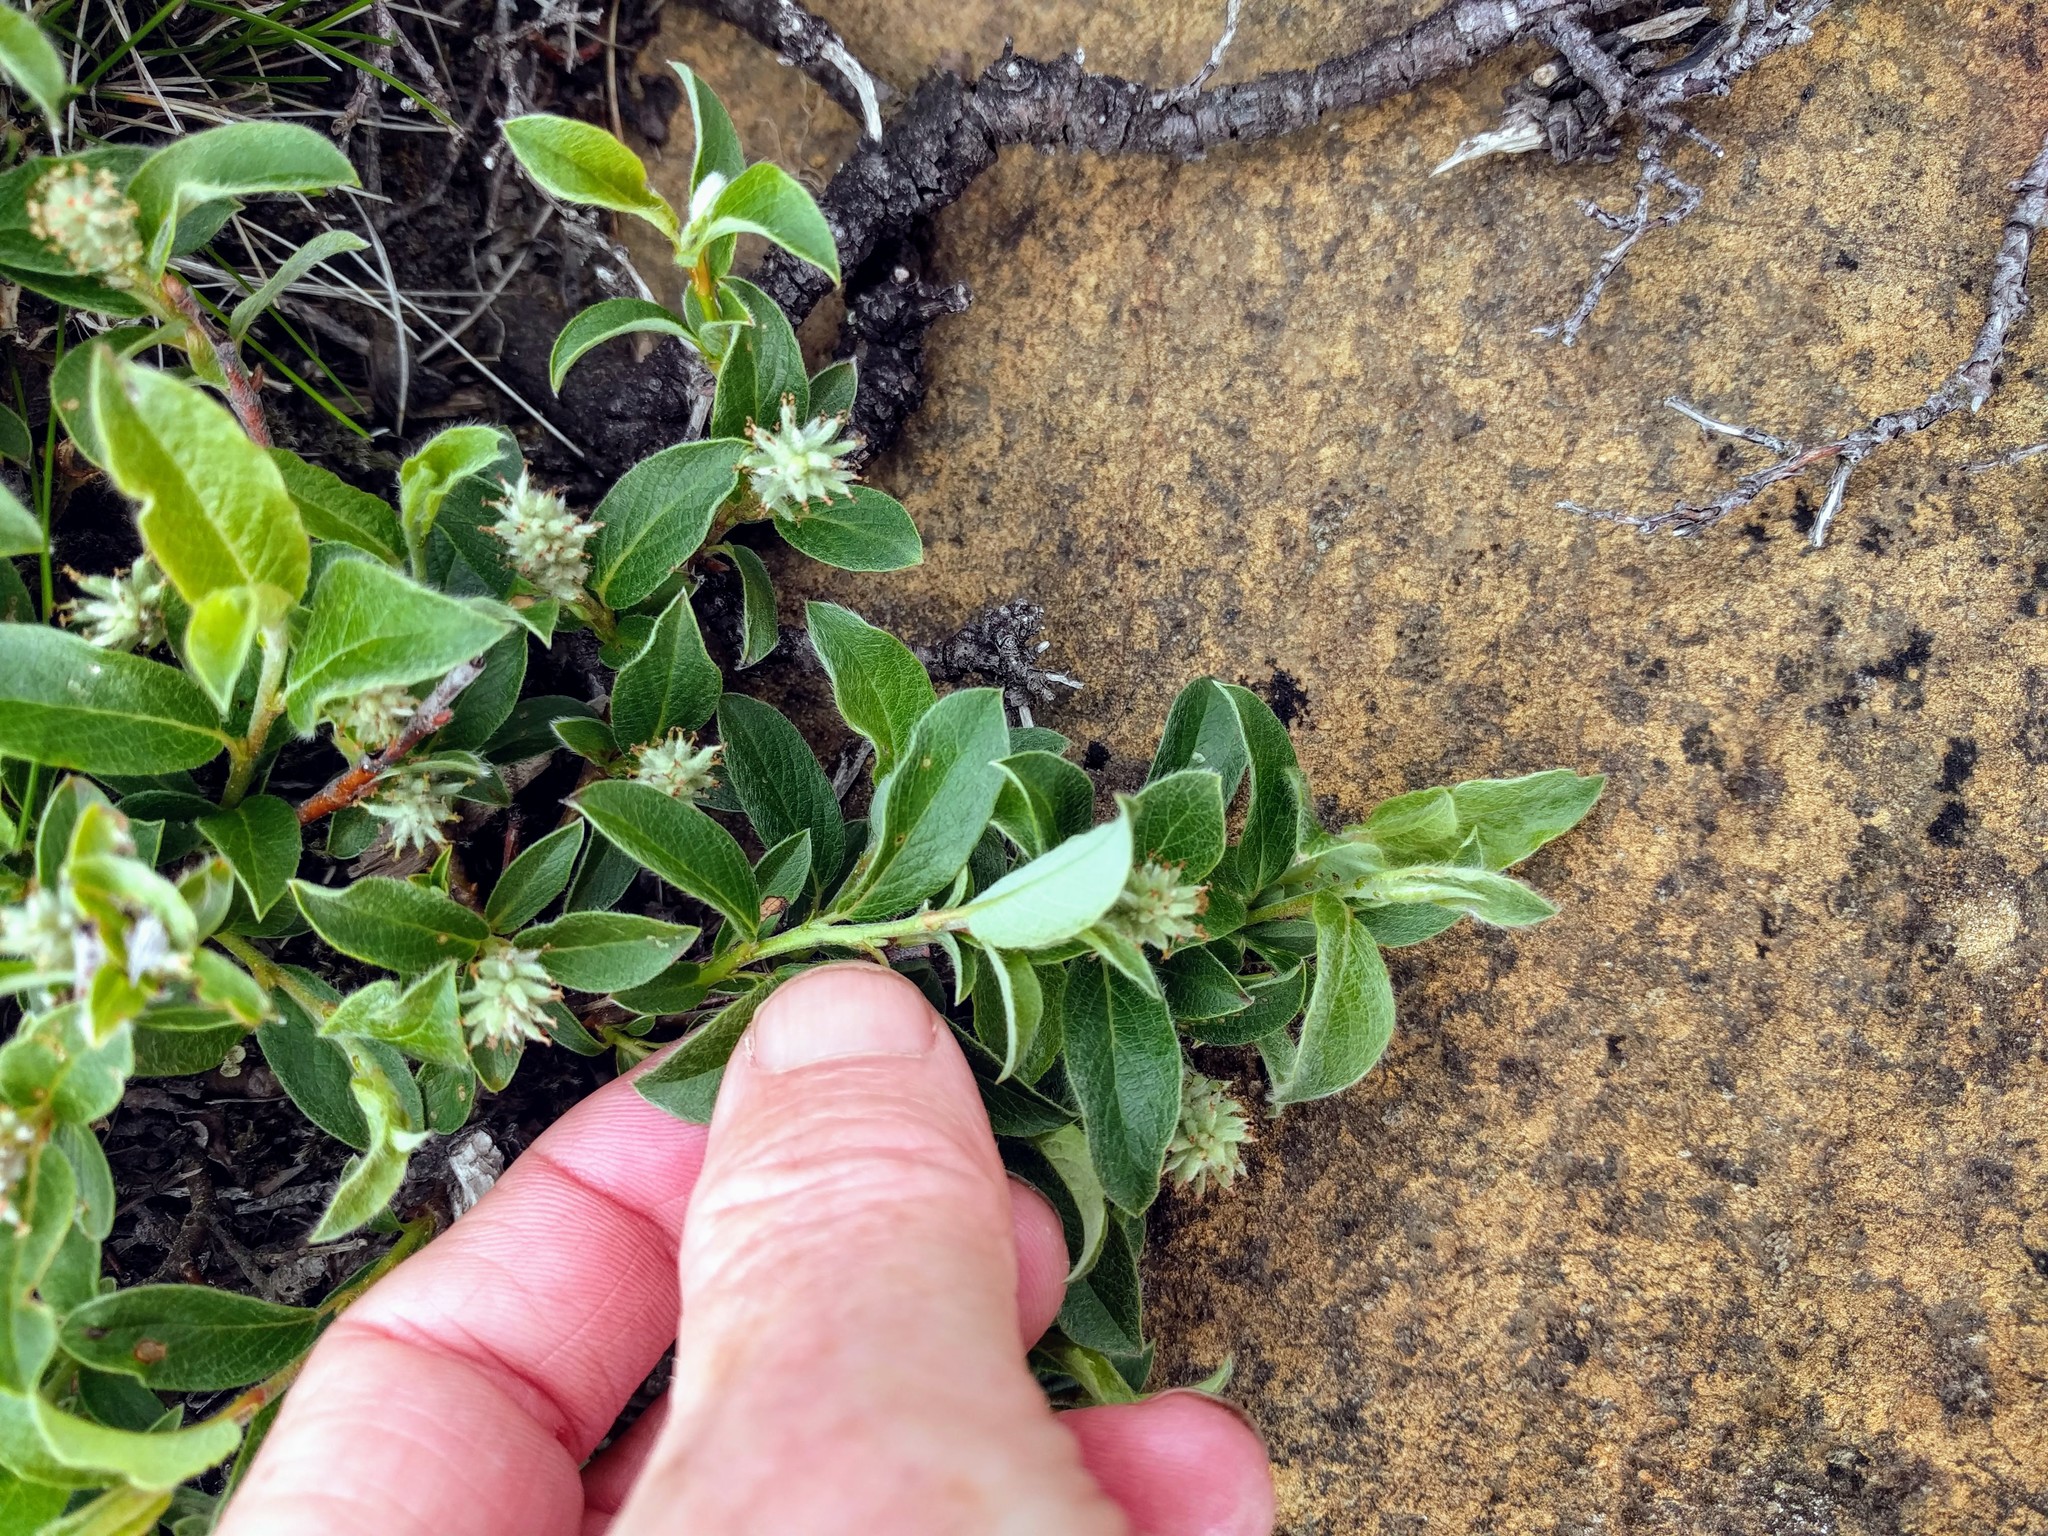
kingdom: Plantae
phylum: Tracheophyta
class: Magnoliopsida
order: Malpighiales
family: Salicaceae
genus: Salix
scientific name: Salix glauca
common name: Glaucous willow
